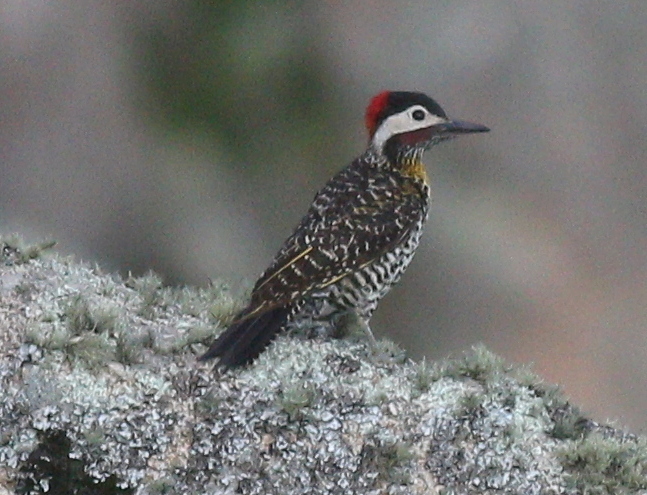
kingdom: Animalia
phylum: Chordata
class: Aves
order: Piciformes
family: Picidae
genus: Colaptes
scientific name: Colaptes melanochloros
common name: Green-barred woodpecker
